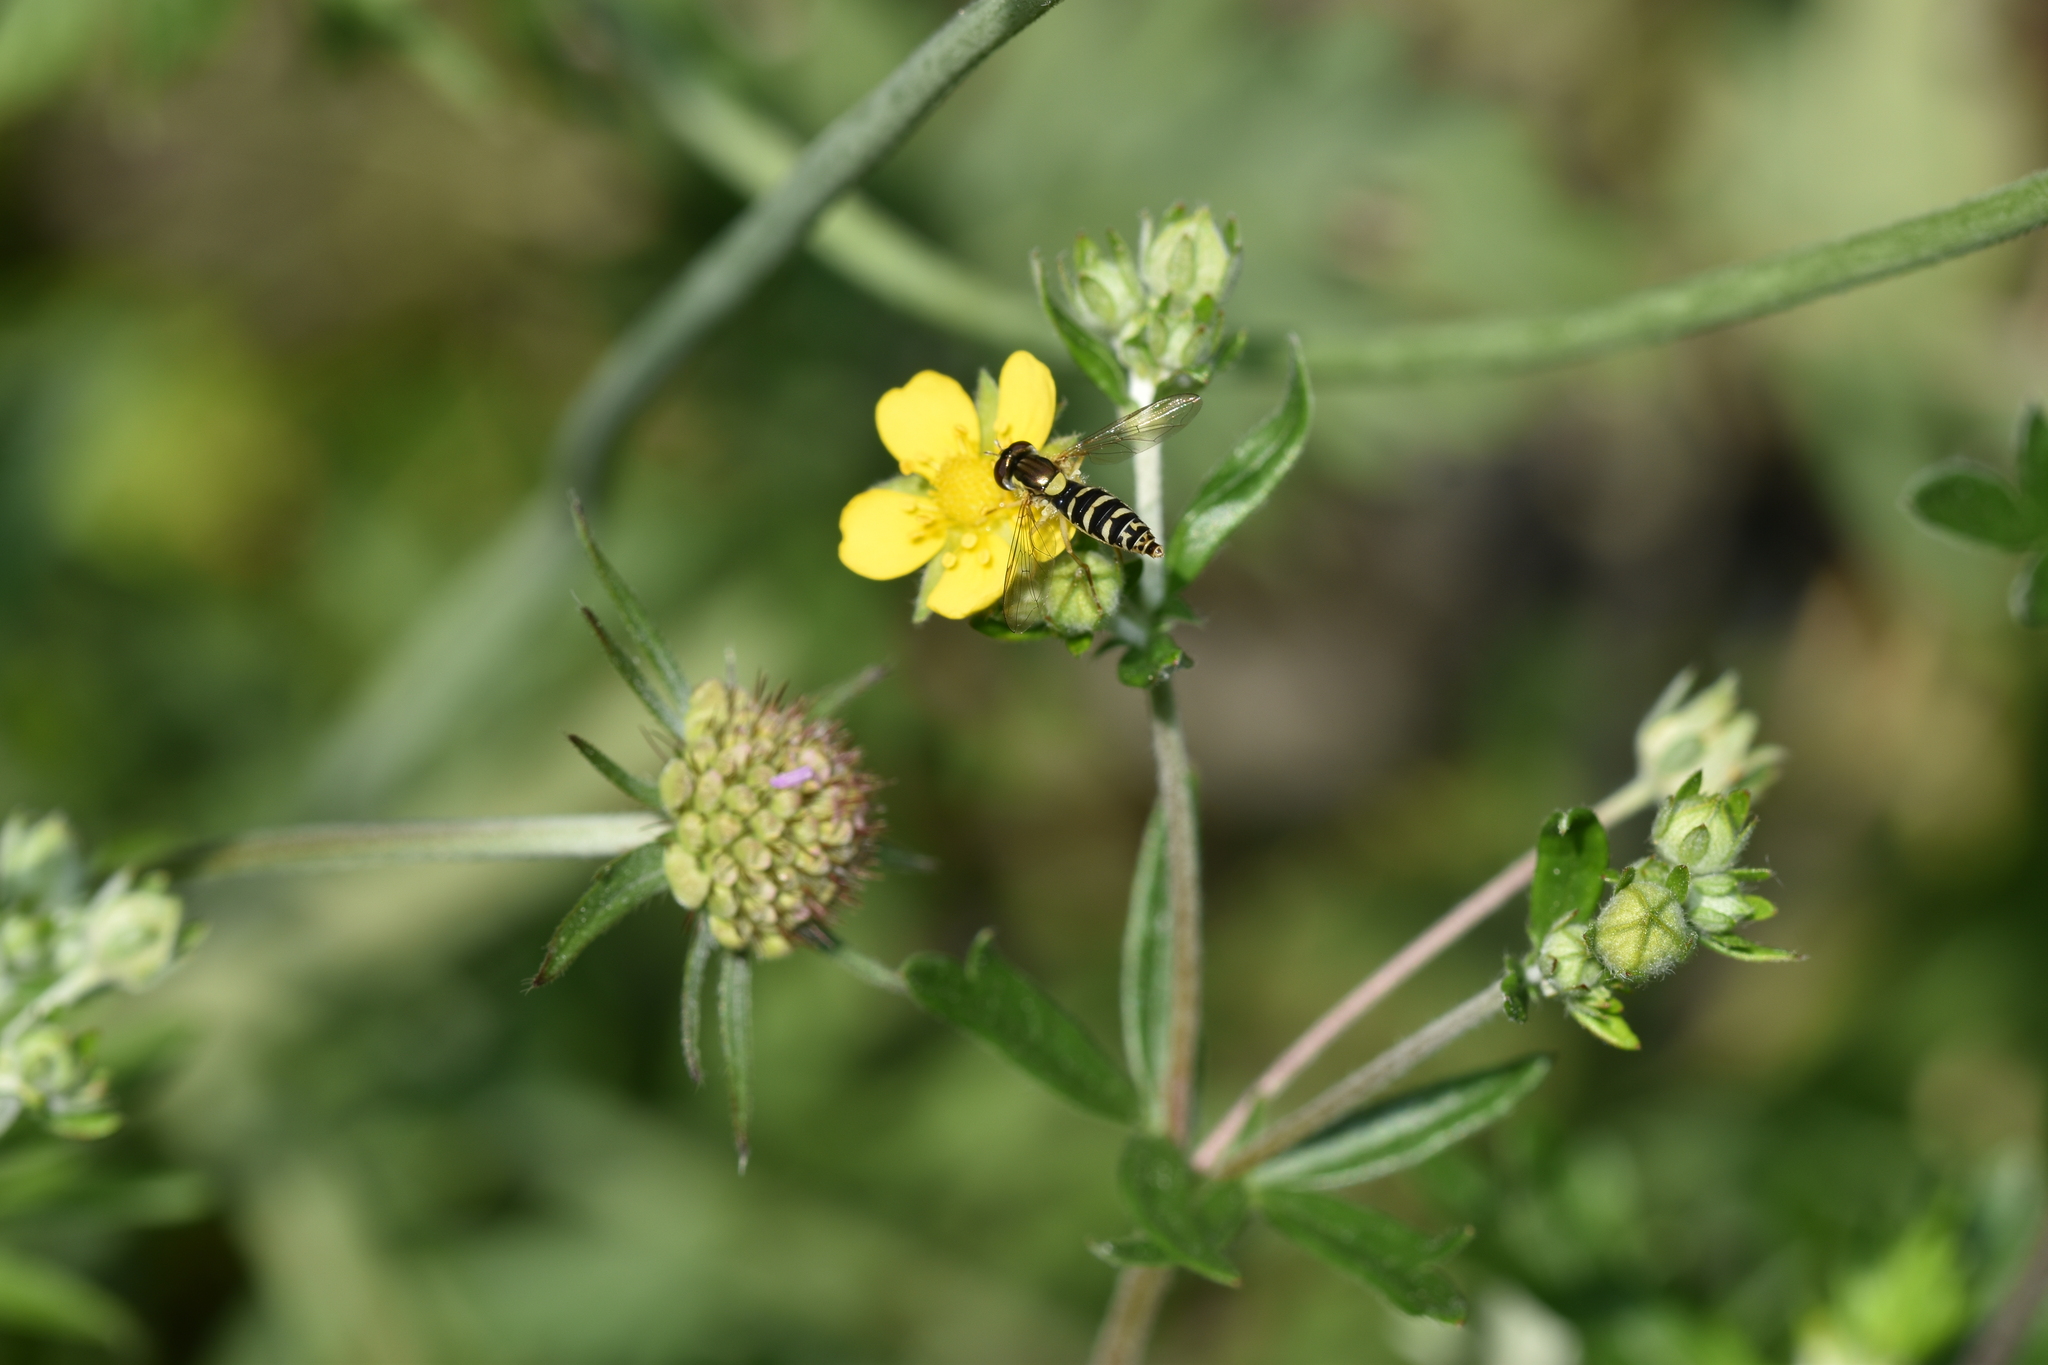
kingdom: Animalia
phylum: Arthropoda
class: Insecta
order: Diptera
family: Syrphidae
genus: Sphaerophoria
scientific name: Sphaerophoria
